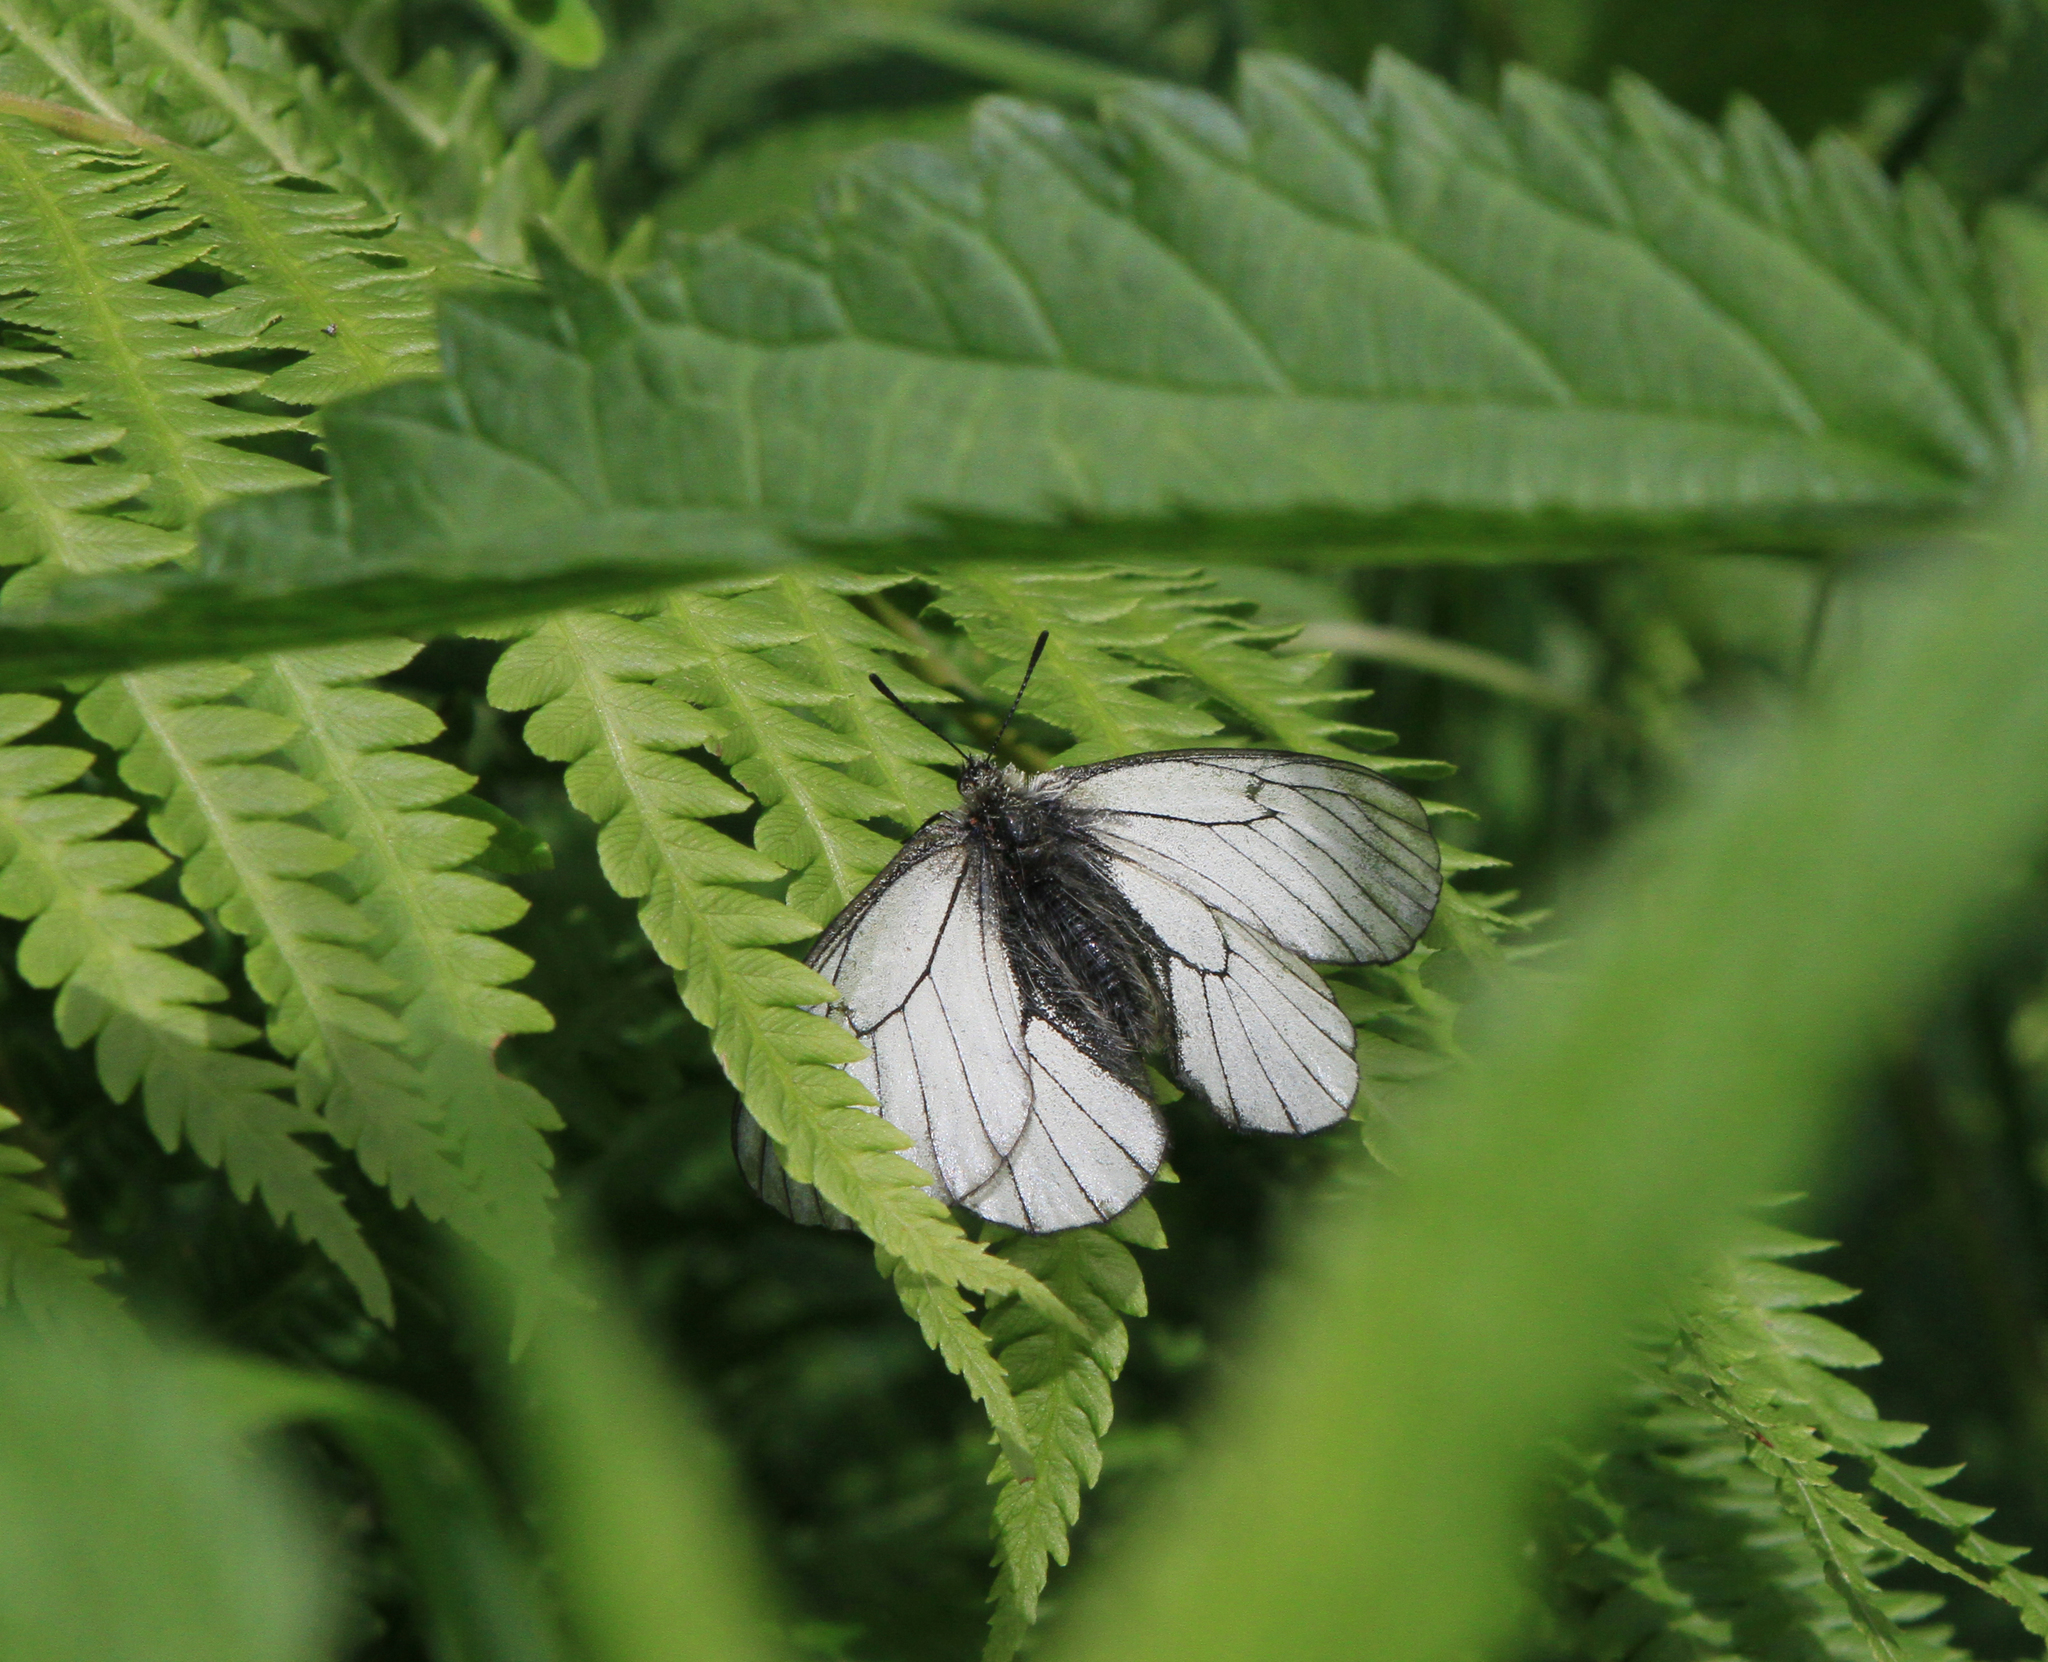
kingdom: Animalia
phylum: Arthropoda
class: Insecta
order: Lepidoptera
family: Papilionidae
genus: Parnassius
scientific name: Parnassius stubbendorfii
